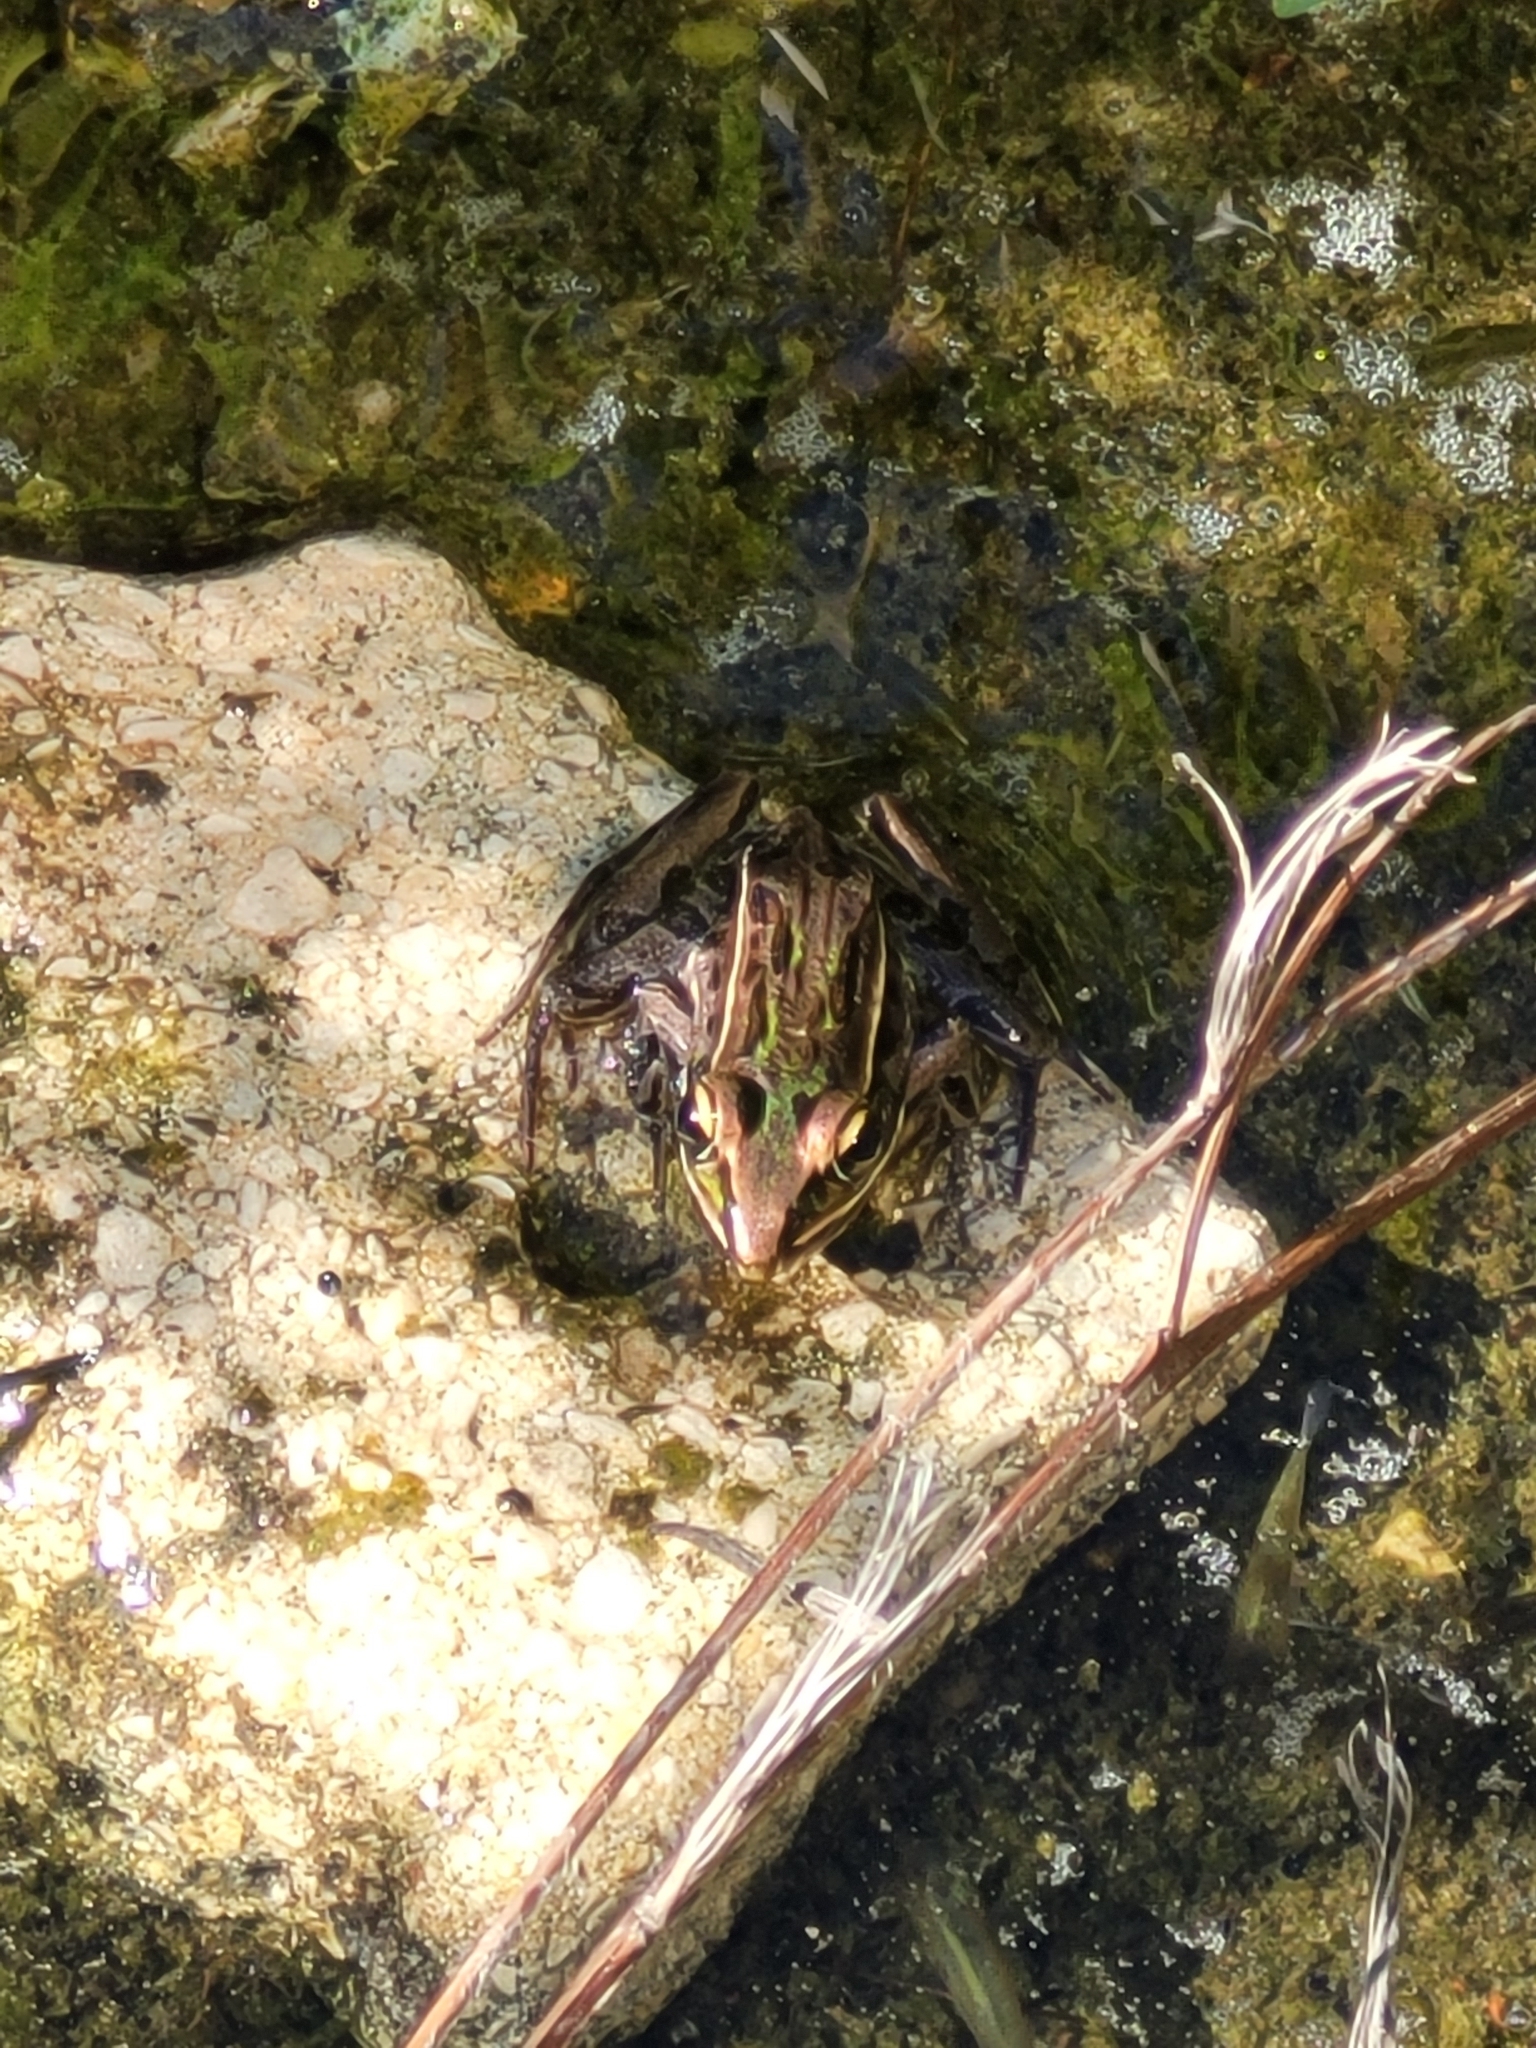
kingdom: Animalia
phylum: Chordata
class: Amphibia
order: Anura
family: Ranidae
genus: Lithobates
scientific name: Lithobates sphenocephalus
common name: Southern leopard frog
